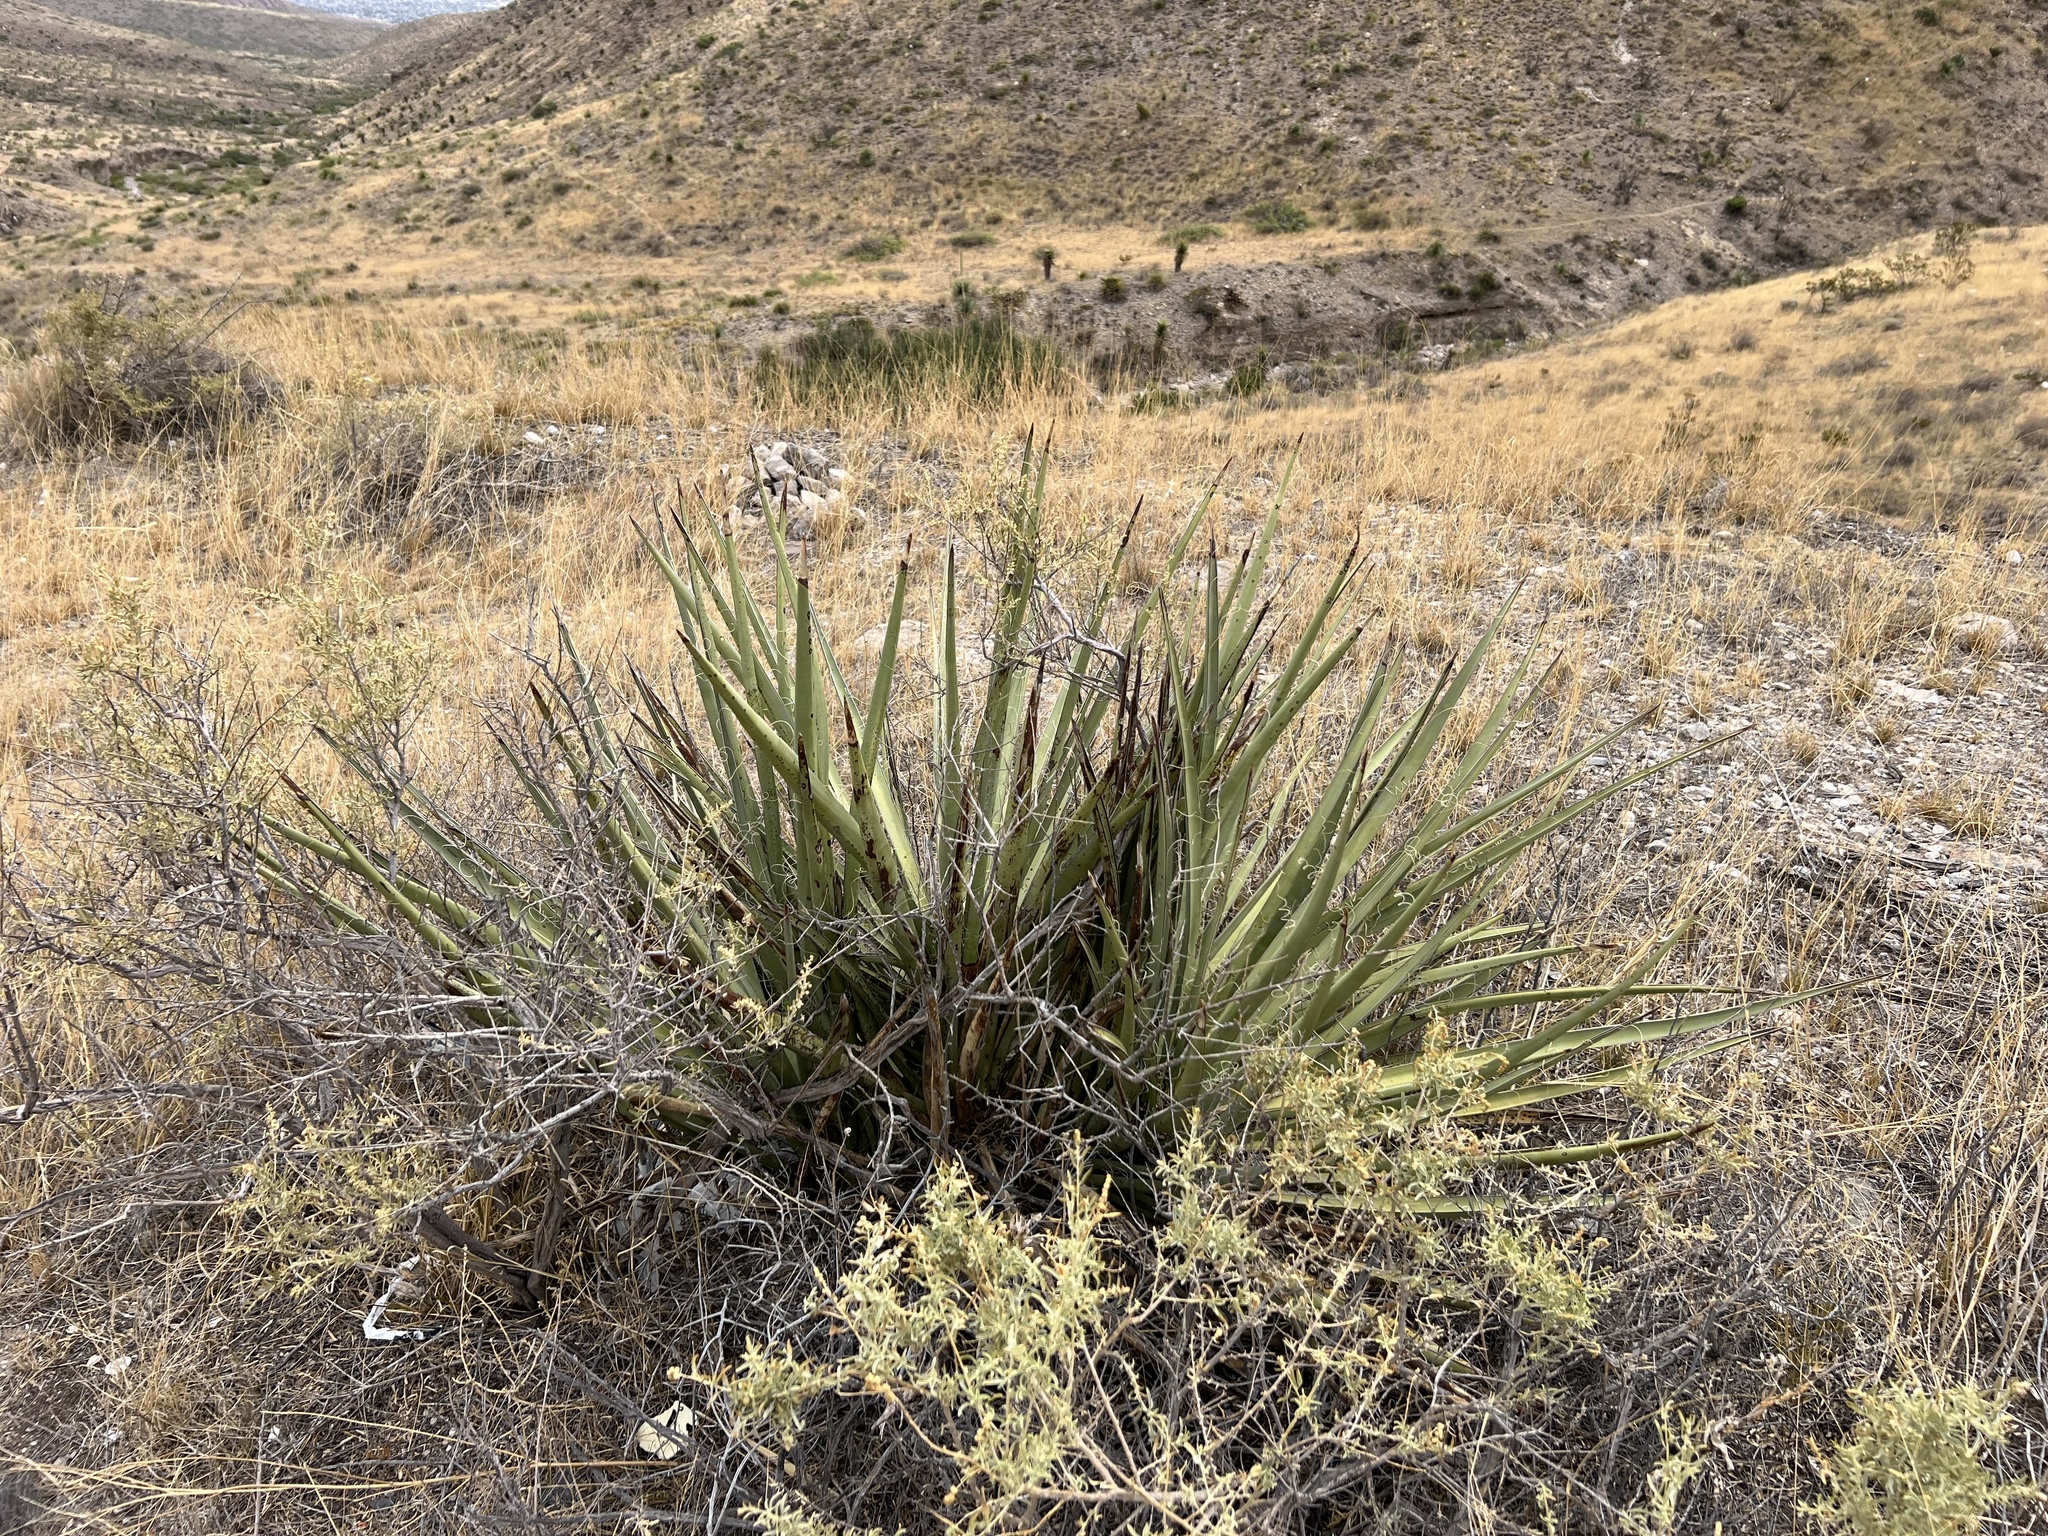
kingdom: Plantae
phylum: Tracheophyta
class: Liliopsida
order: Asparagales
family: Asparagaceae
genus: Yucca
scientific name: Yucca baccata
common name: Banana yucca
